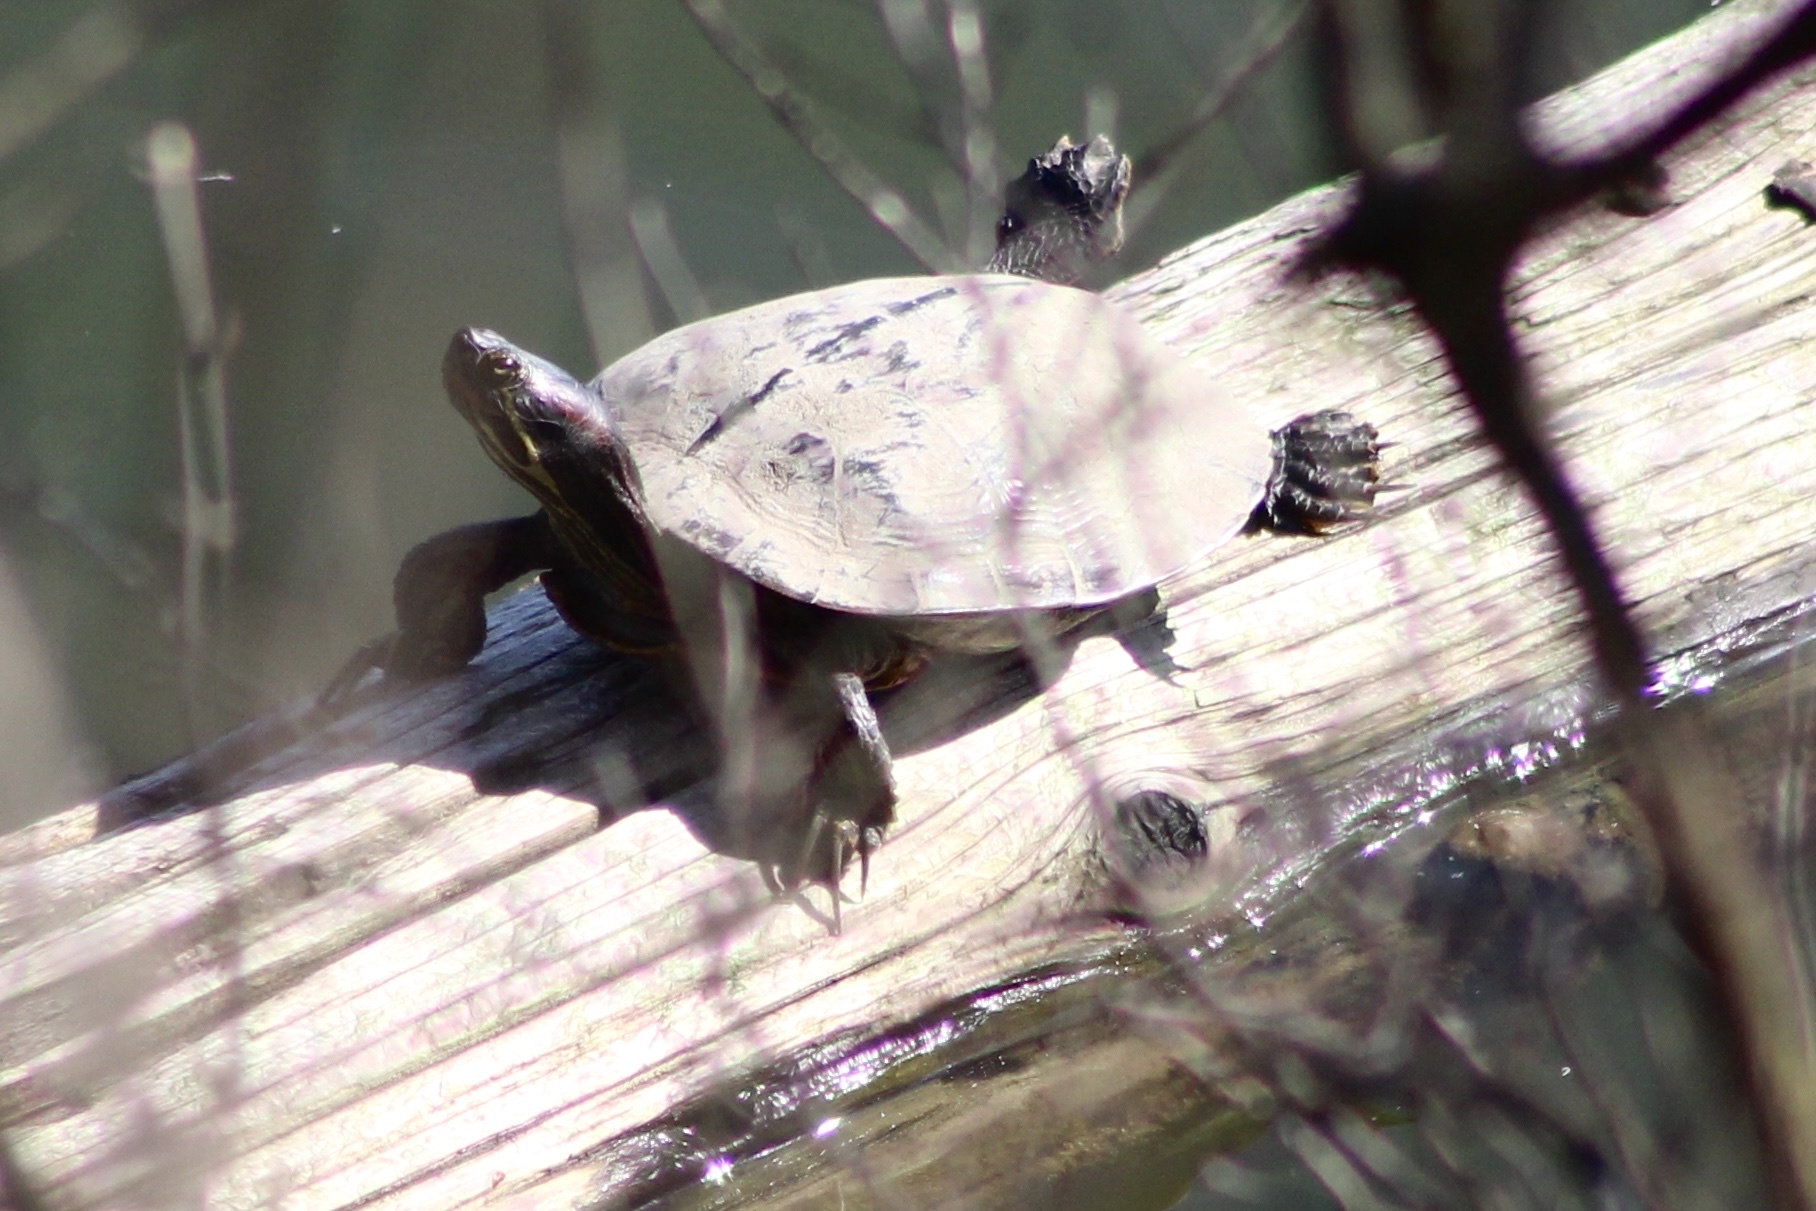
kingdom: Animalia
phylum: Chordata
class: Testudines
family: Emydidae
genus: Trachemys
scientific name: Trachemys scripta
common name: Slider
